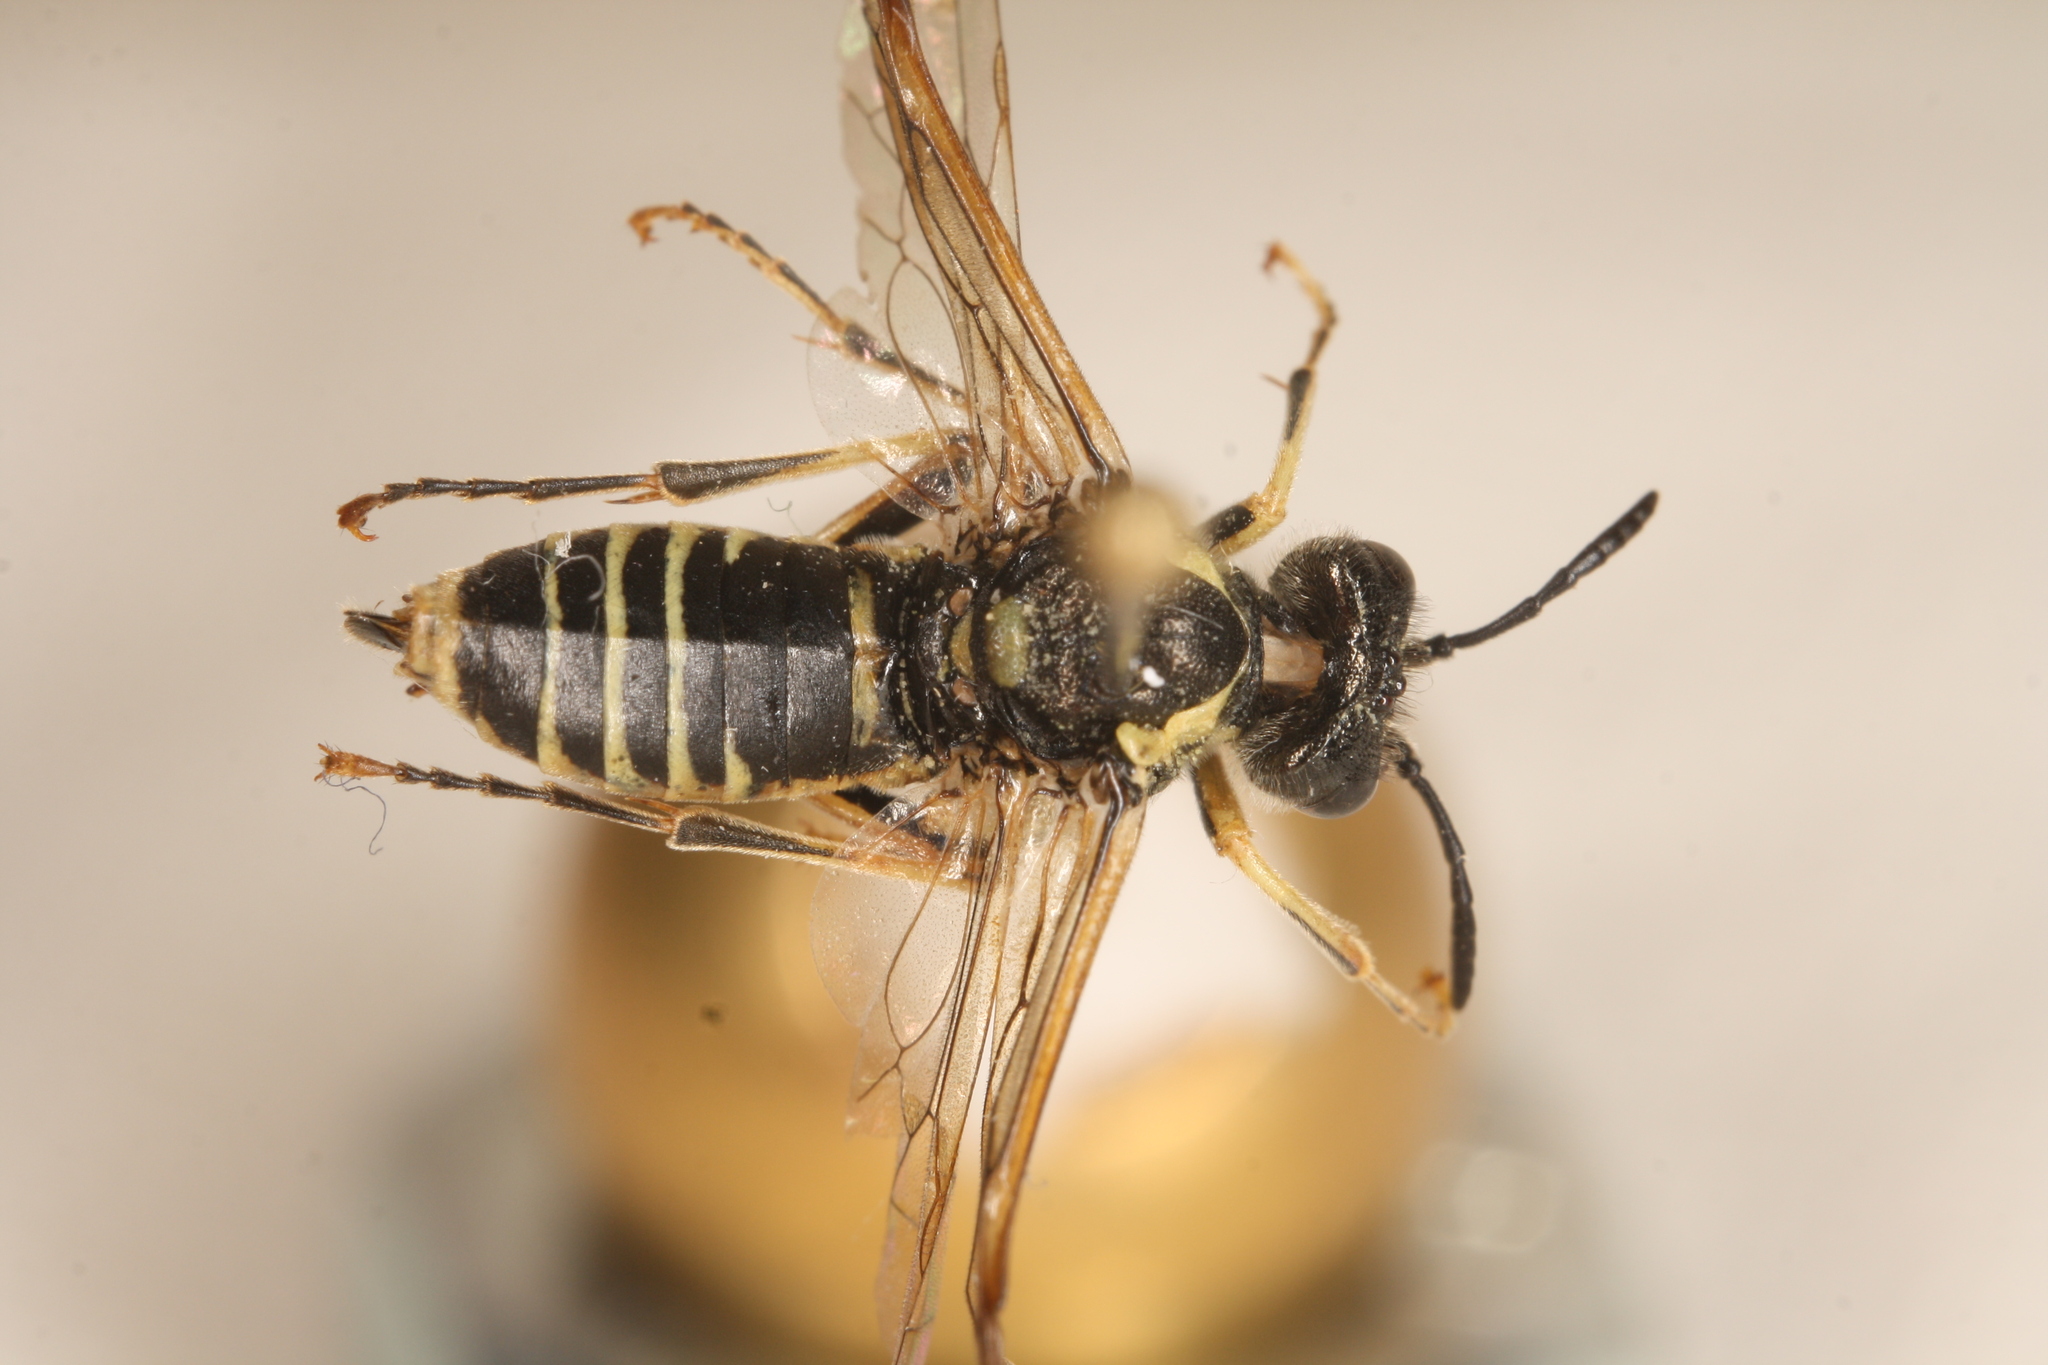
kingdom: Animalia
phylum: Arthropoda
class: Insecta
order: Hymenoptera
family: Tenthredinidae
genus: Tenthredo
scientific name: Tenthredo brevicornis
